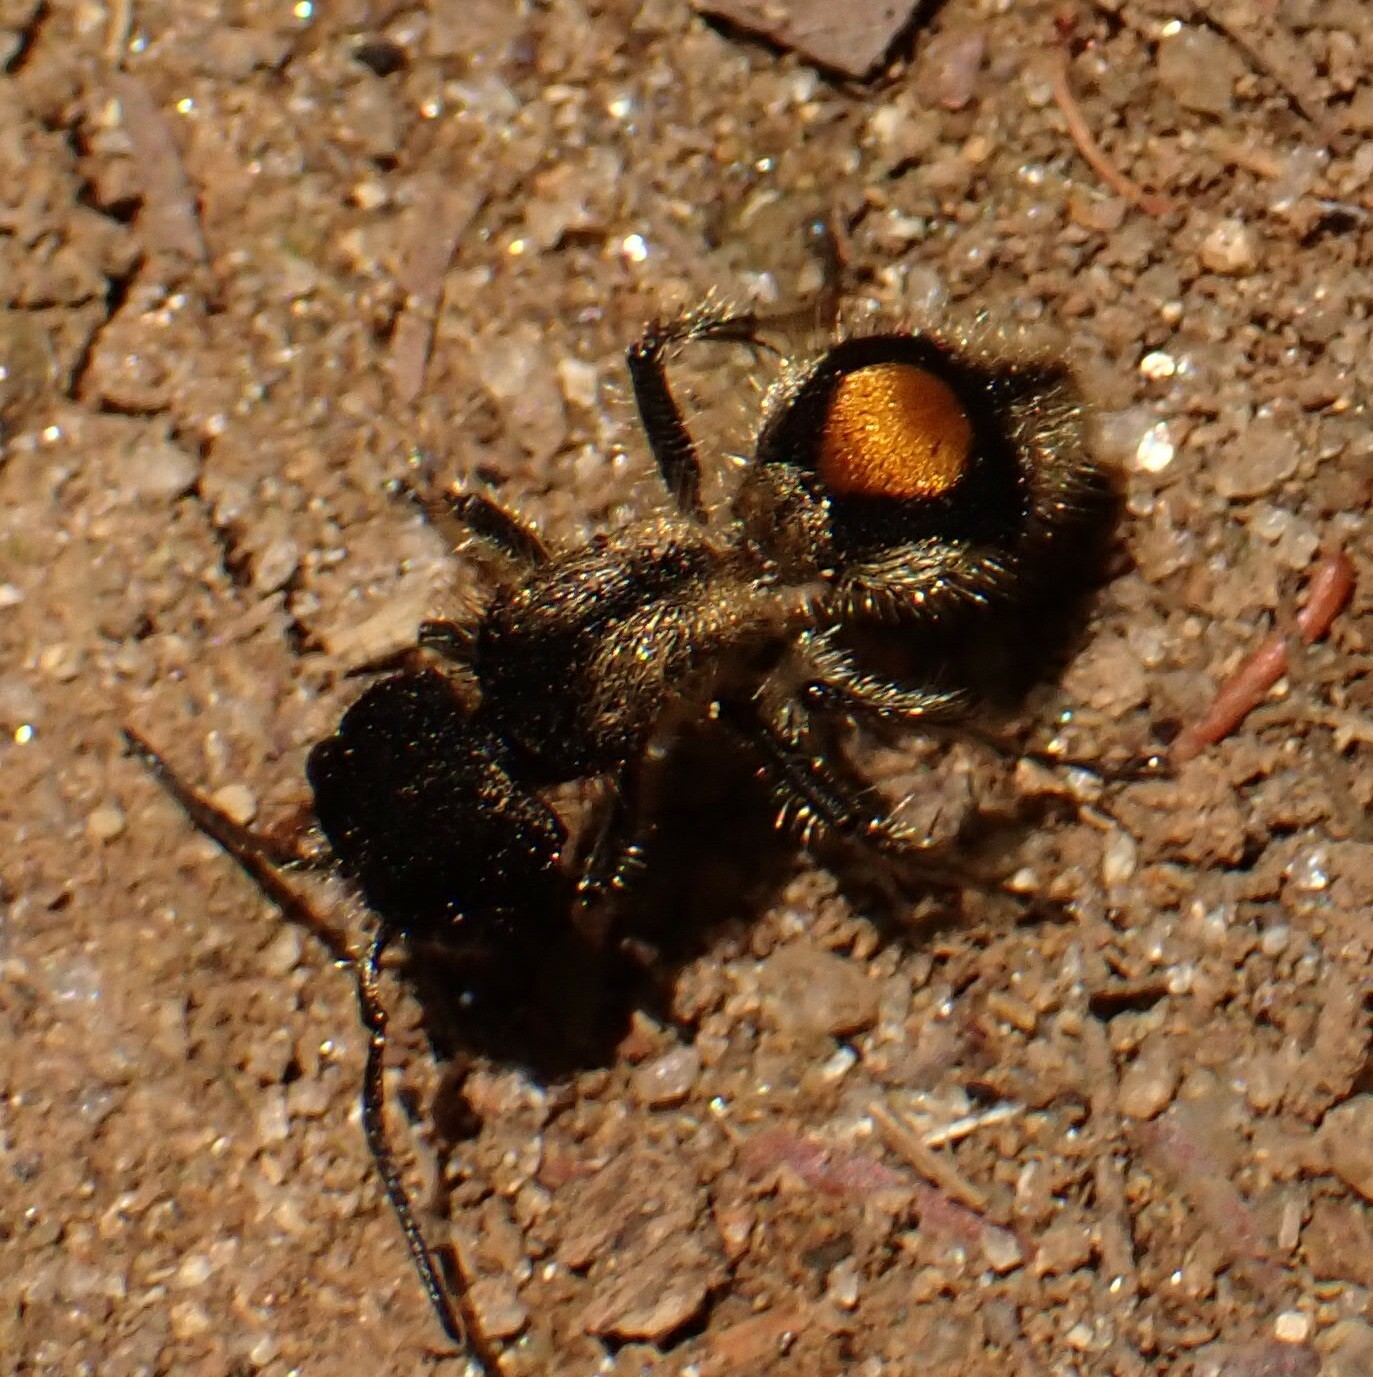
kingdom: Animalia
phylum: Arthropoda
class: Insecta
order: Hymenoptera
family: Mutillidae
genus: Hoplocrates
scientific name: Hoplocrates
